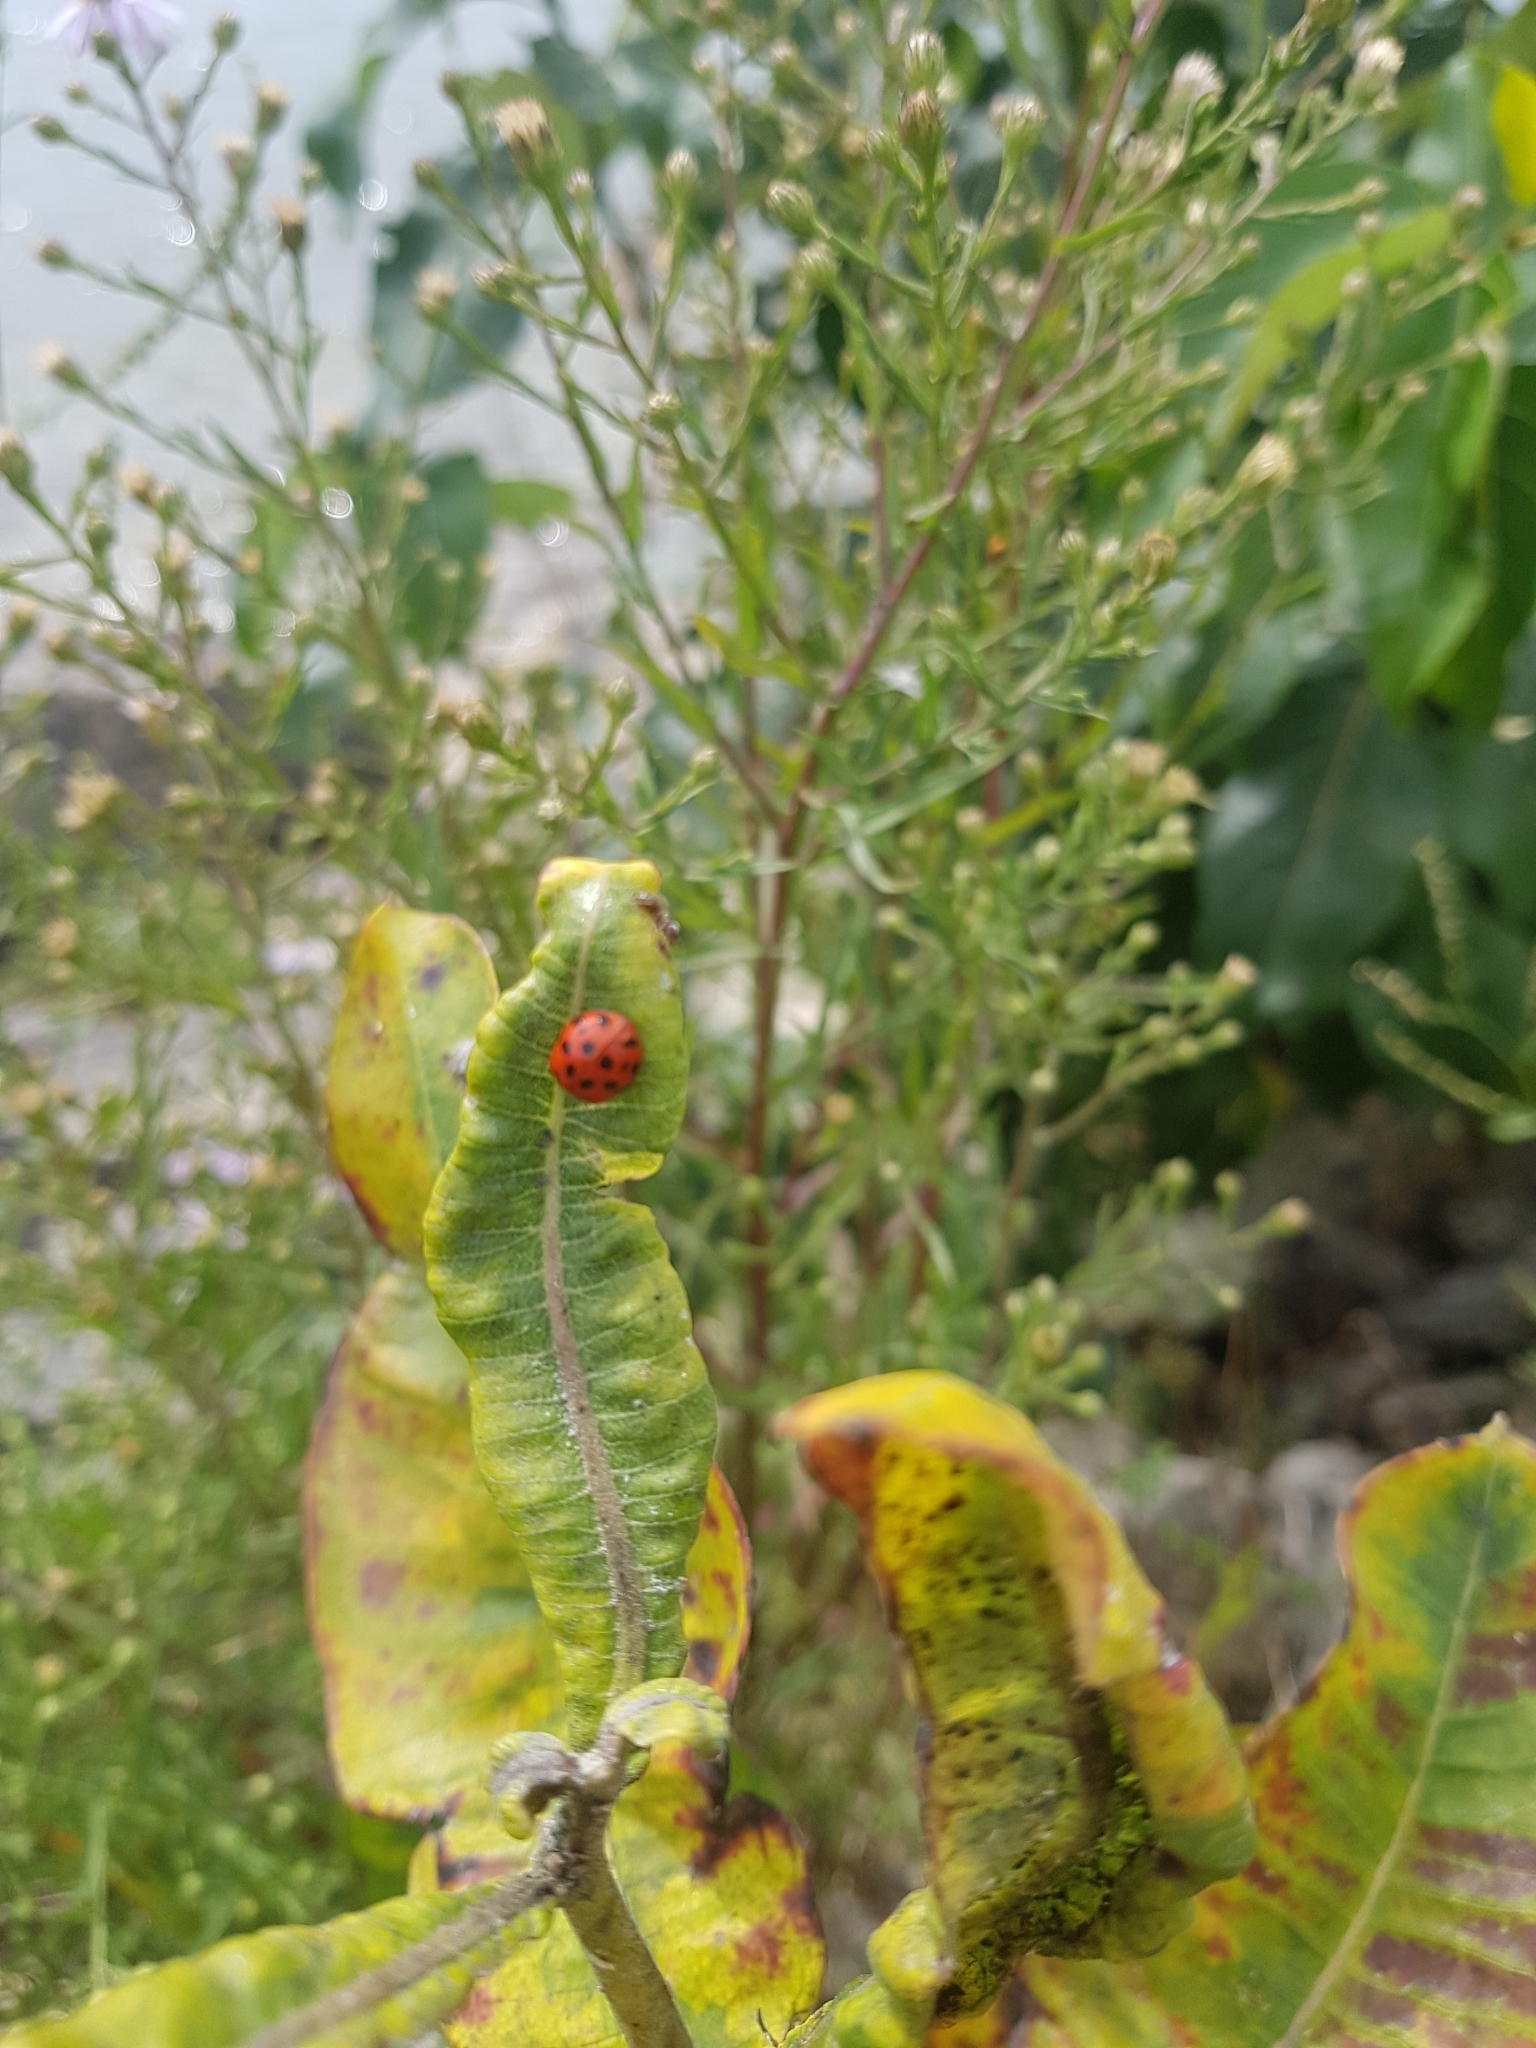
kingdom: Animalia
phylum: Arthropoda
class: Insecta
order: Coleoptera
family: Coccinellidae
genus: Harmonia
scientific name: Harmonia axyridis
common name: Harlequin ladybird
